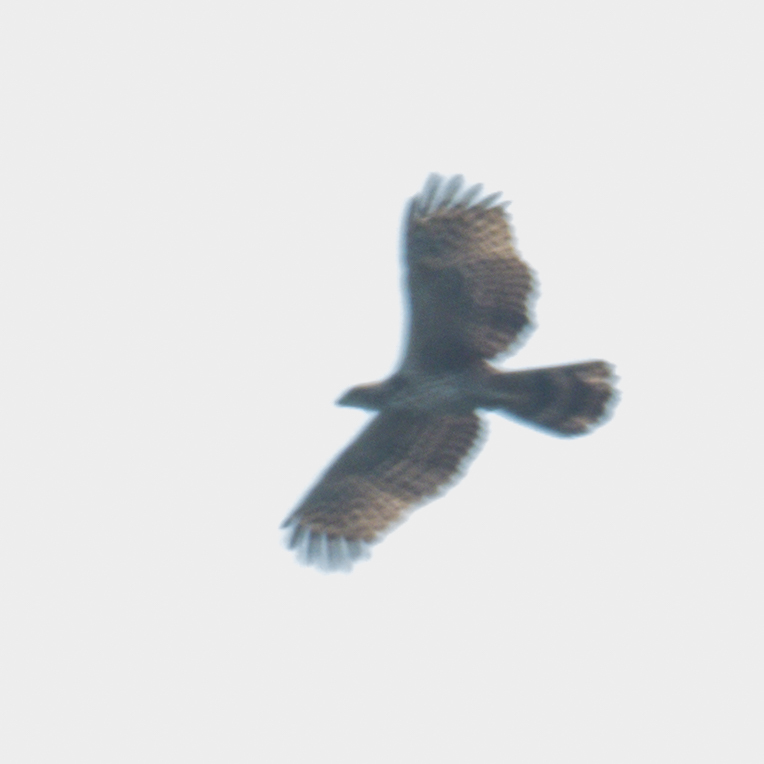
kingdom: Animalia
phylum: Chordata
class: Aves
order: Accipitriformes
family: Accipitridae
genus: Pernis
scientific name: Pernis ptilorhynchus
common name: Crested honey buzzard
